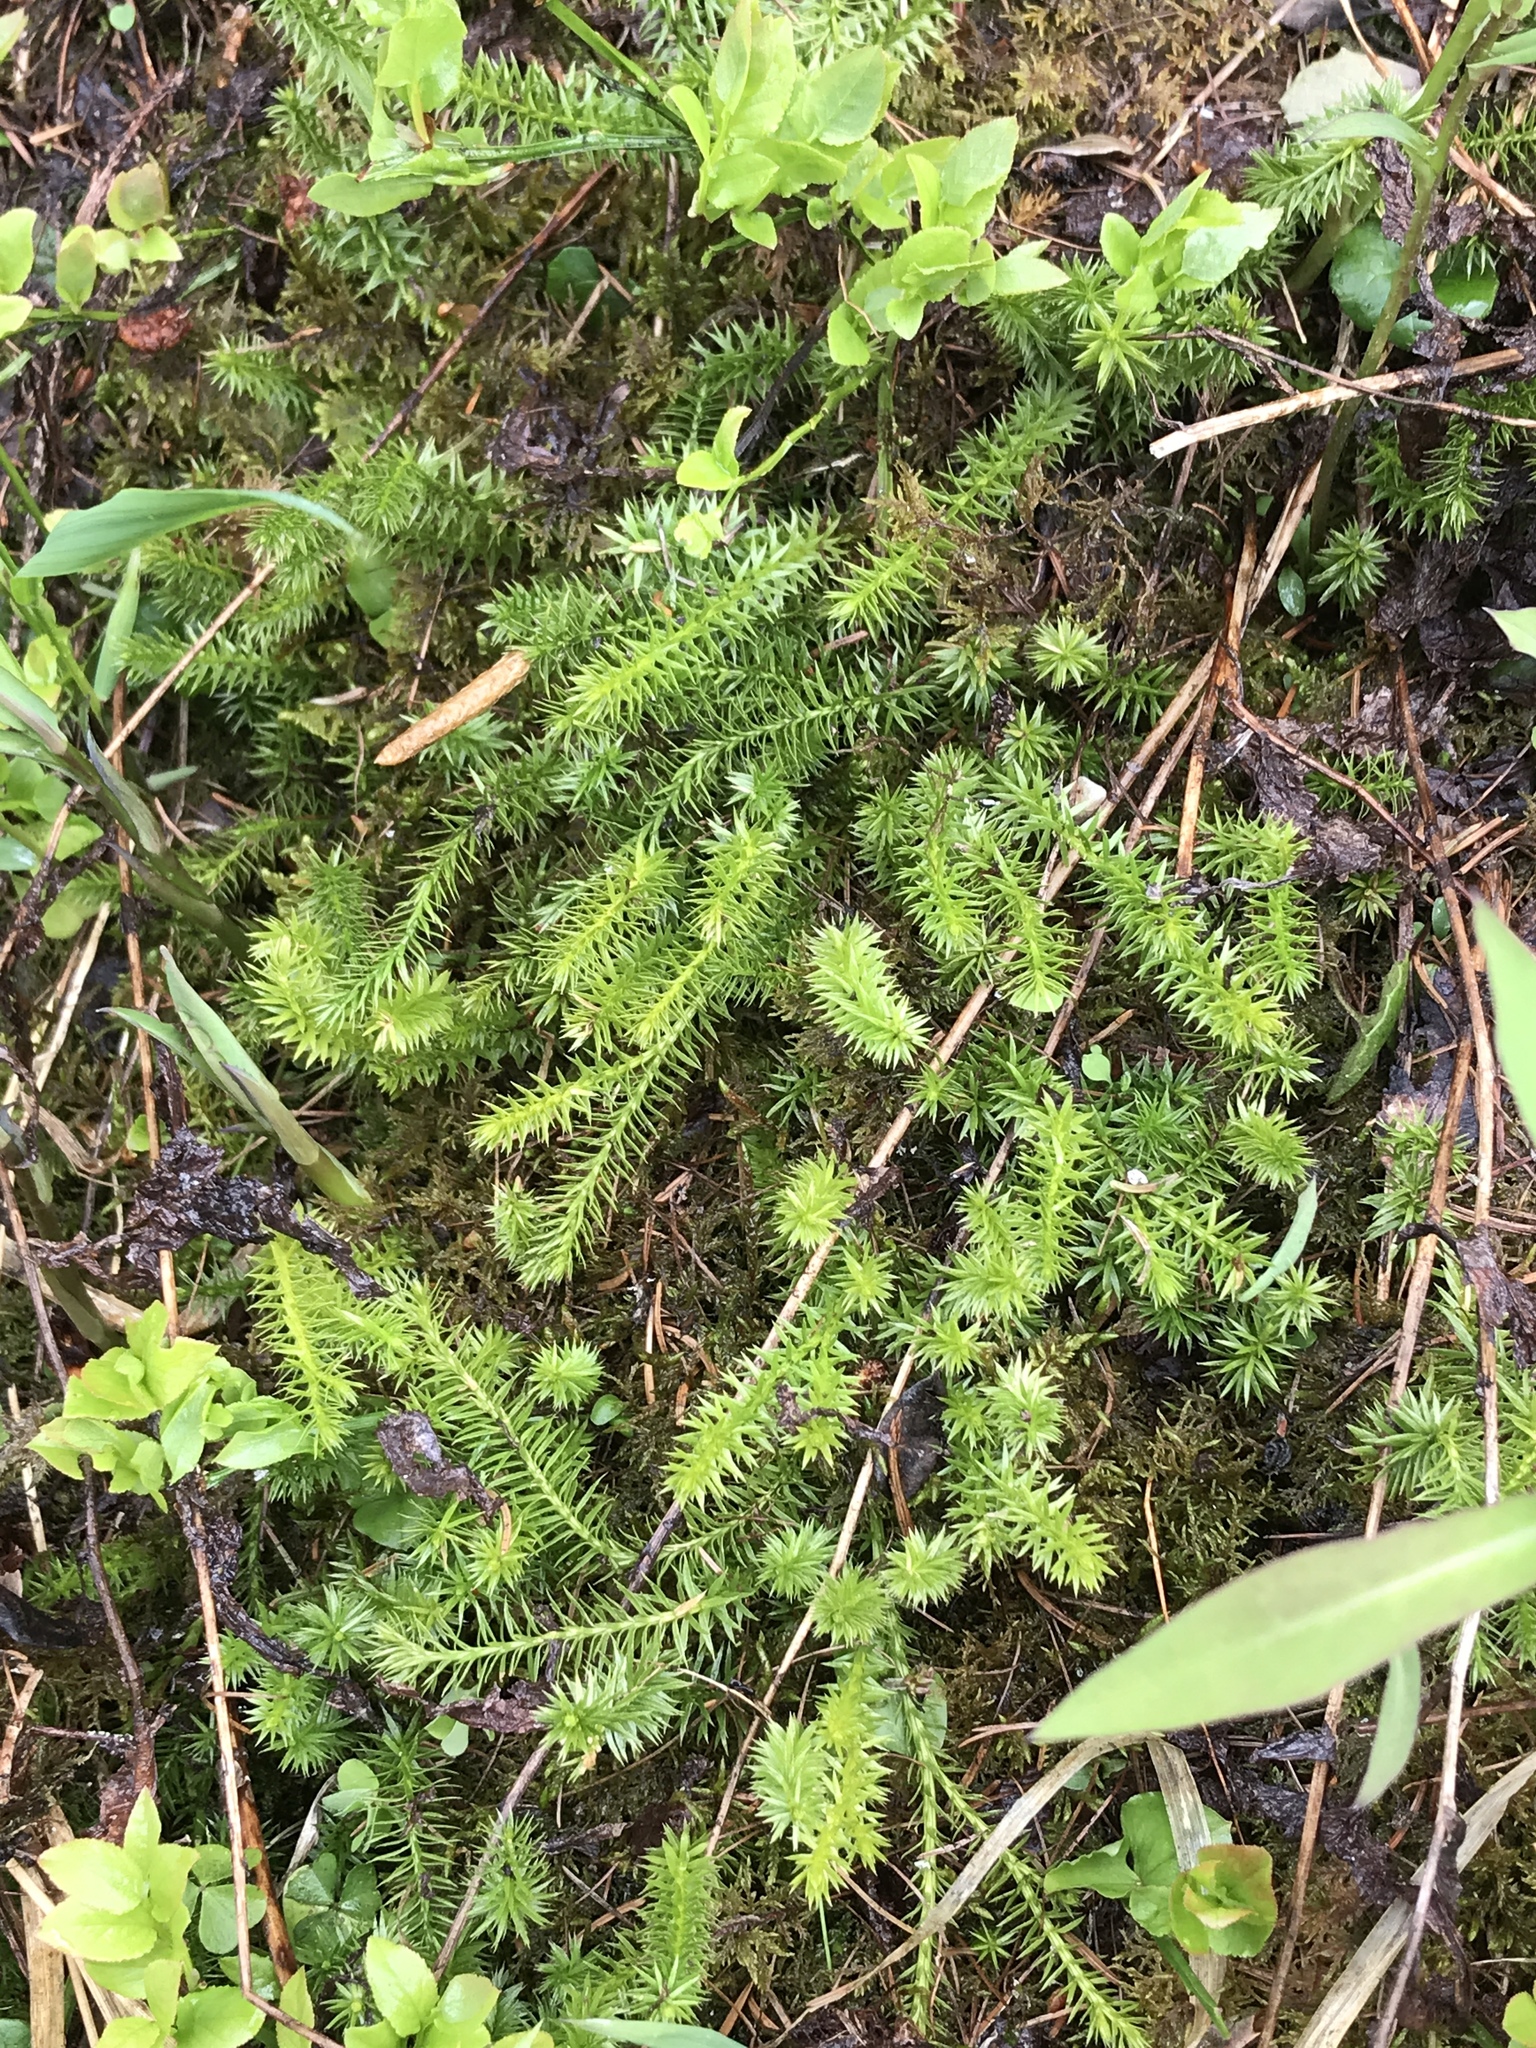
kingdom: Plantae
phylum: Tracheophyta
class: Lycopodiopsida
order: Lycopodiales
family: Lycopodiaceae
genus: Spinulum
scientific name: Spinulum annotinum
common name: Interrupted club-moss
